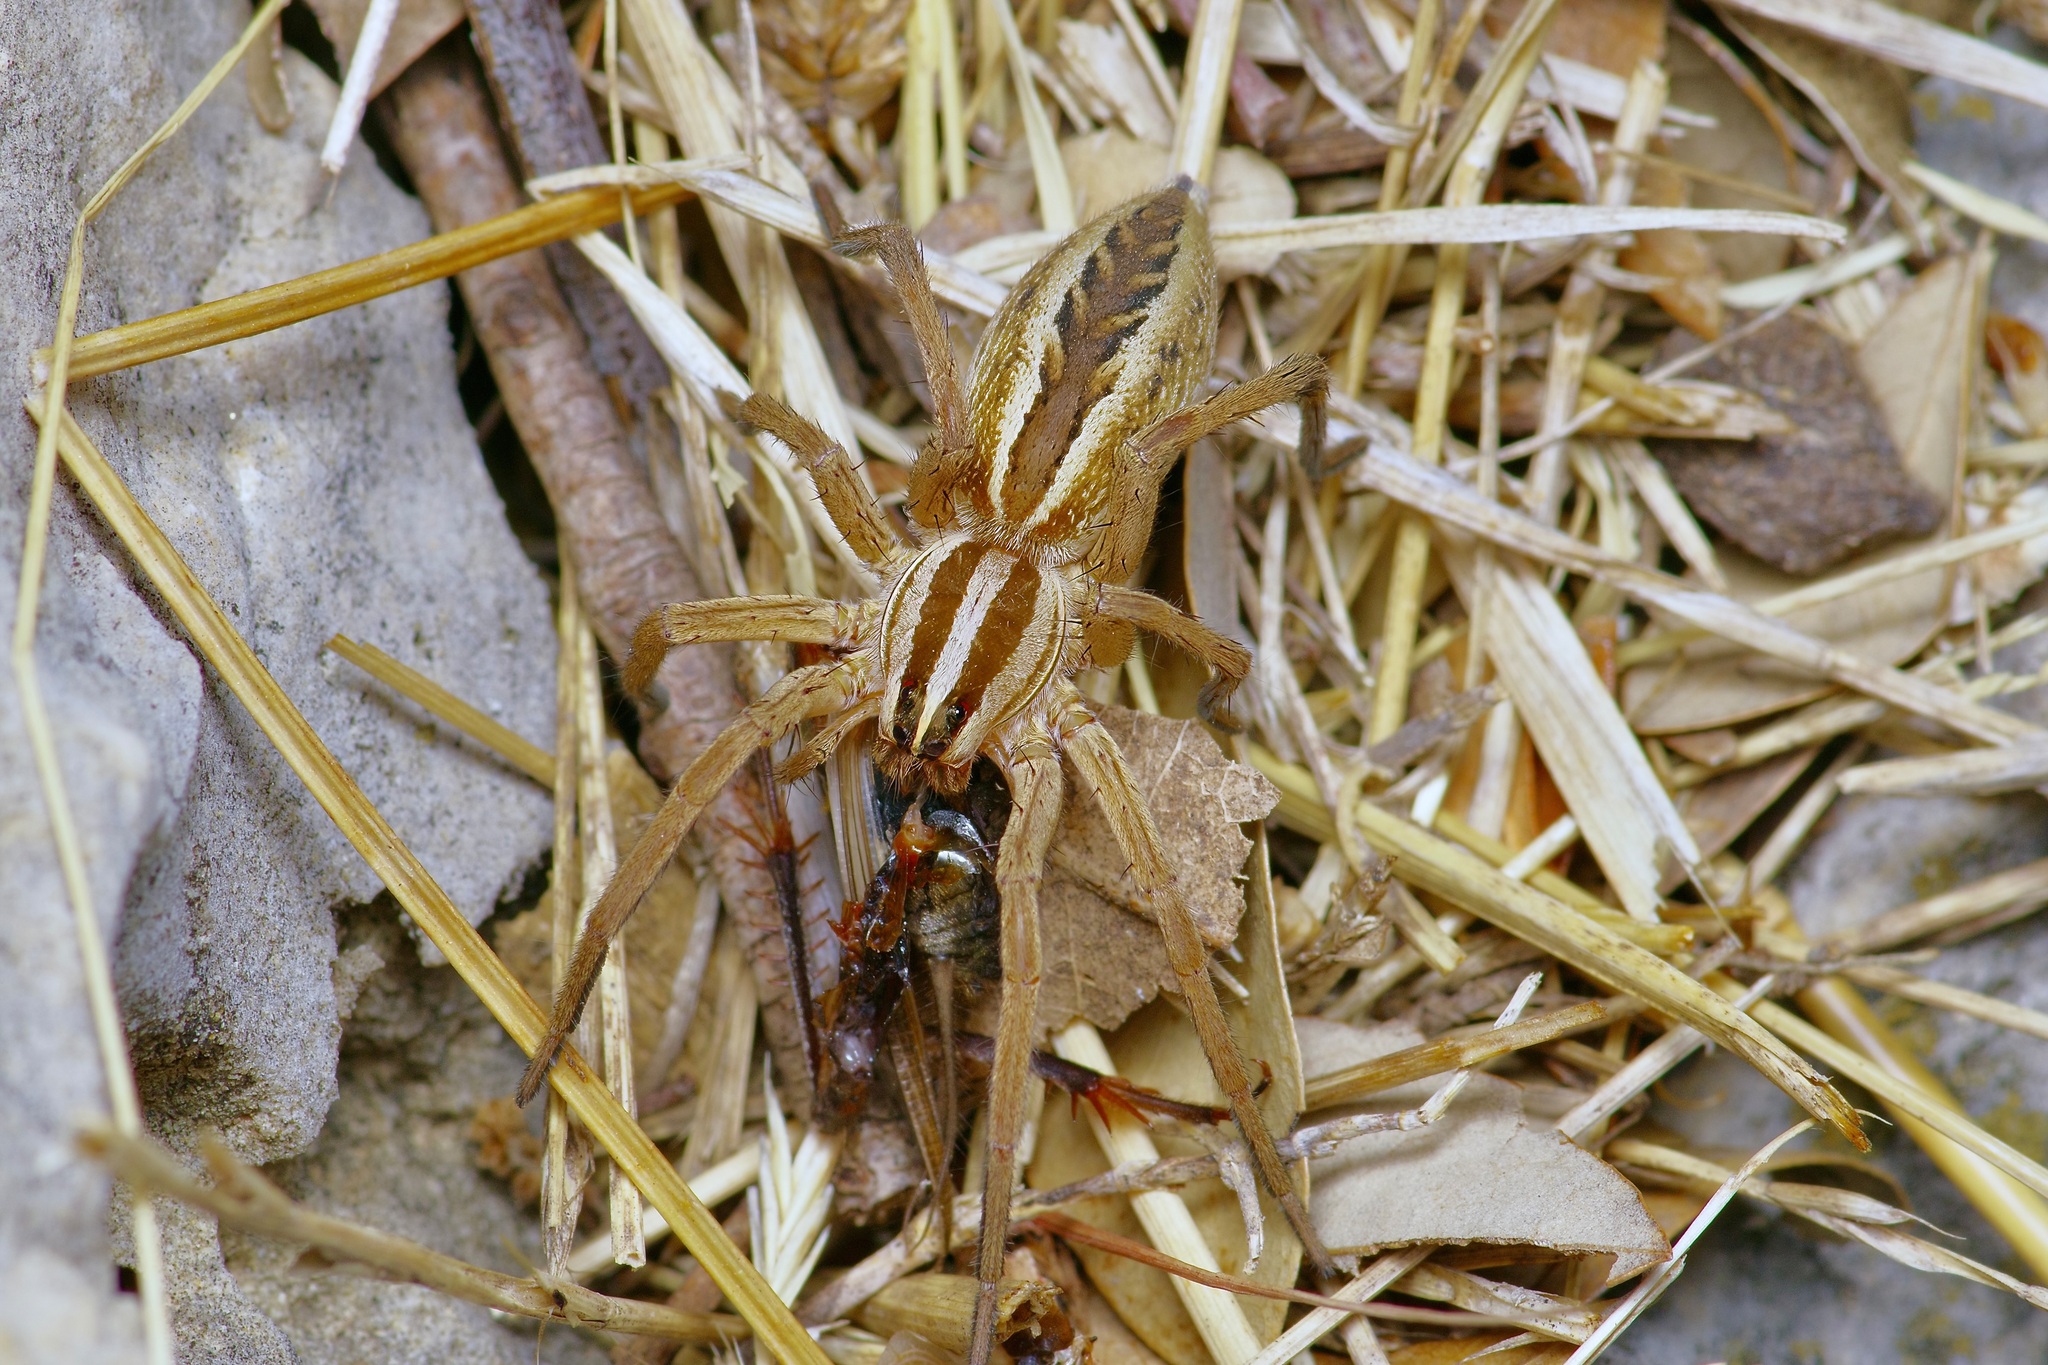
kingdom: Animalia
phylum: Arthropoda
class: Arachnida
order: Araneae
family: Lycosidae
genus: Rabidosa
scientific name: Rabidosa rabida
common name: Rabid wolf spider
